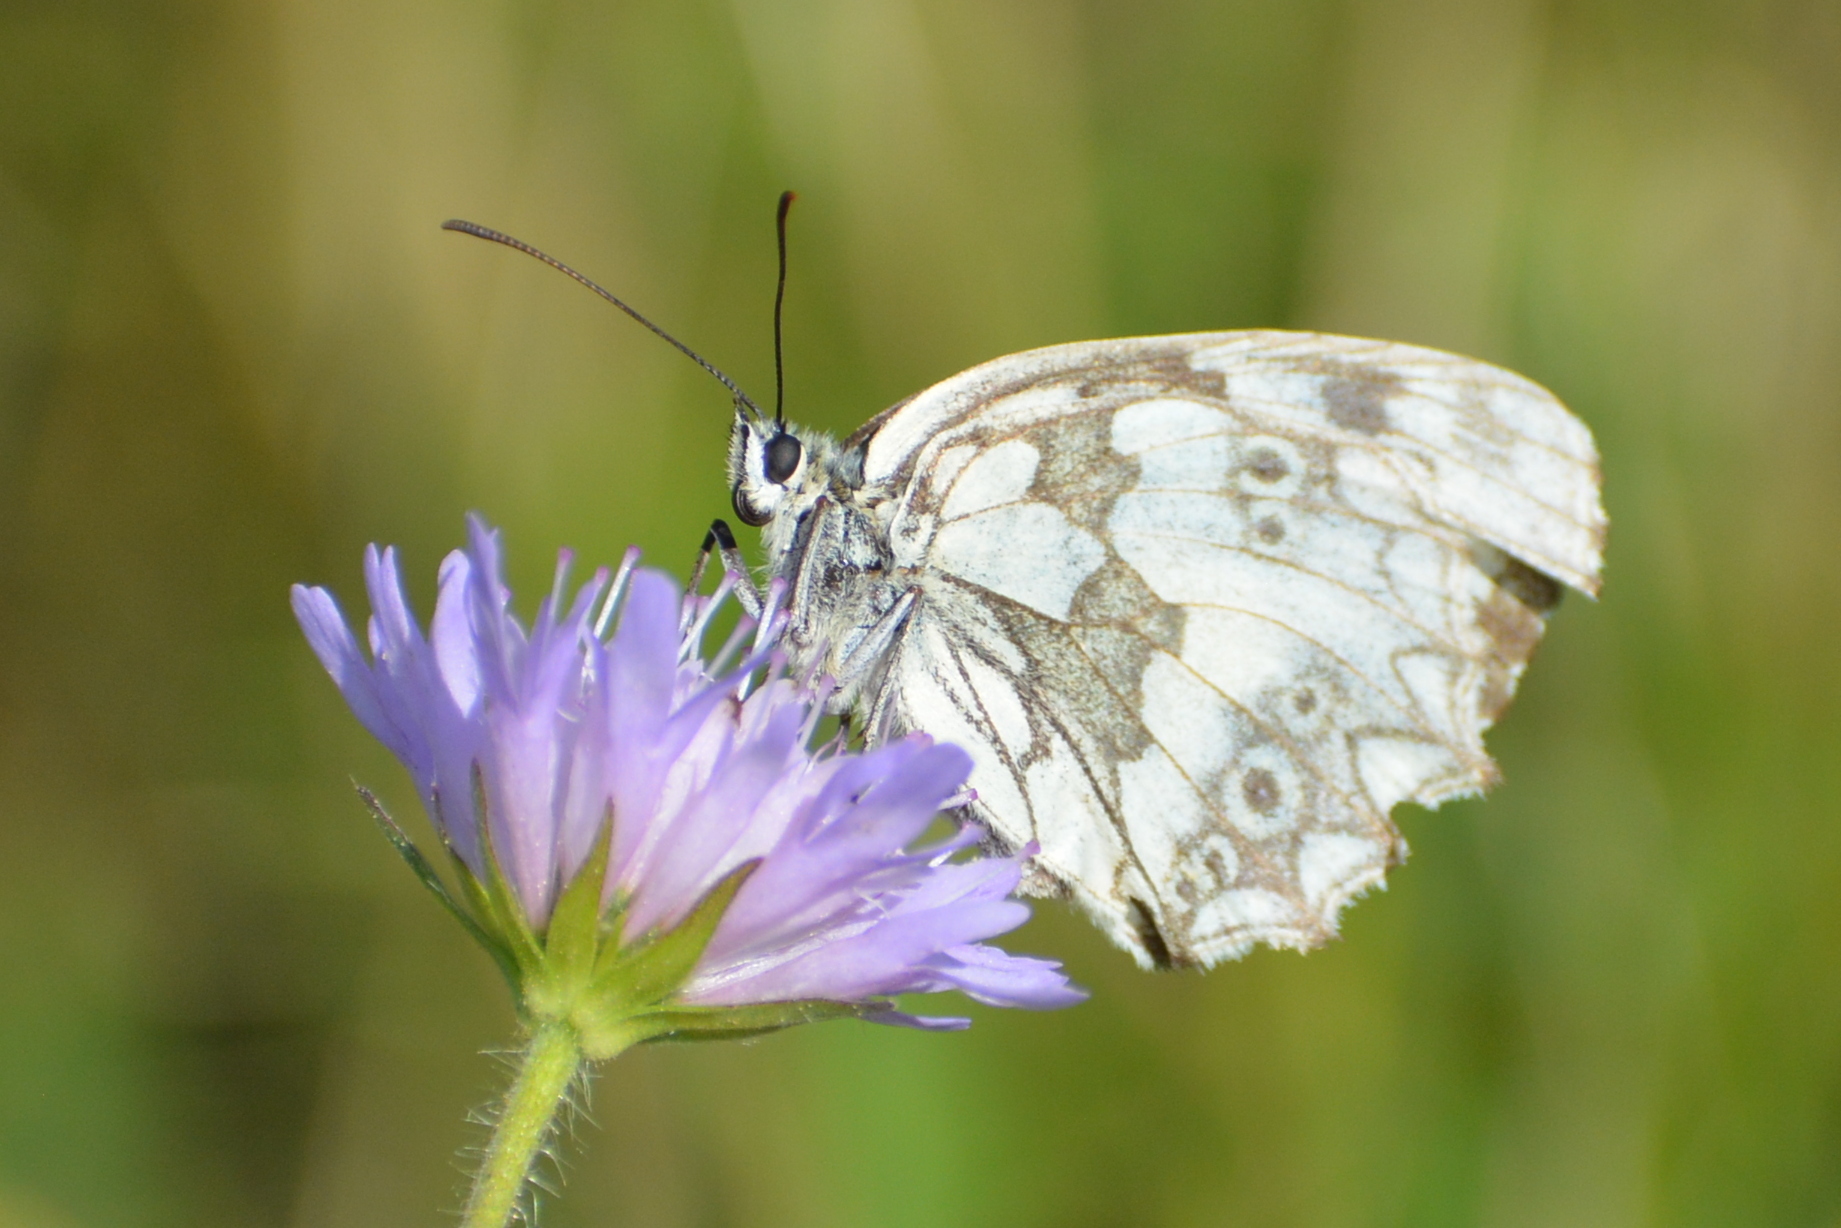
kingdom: Animalia
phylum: Arthropoda
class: Insecta
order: Lepidoptera
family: Nymphalidae
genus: Melanargia
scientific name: Melanargia galathea
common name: Marbled white
